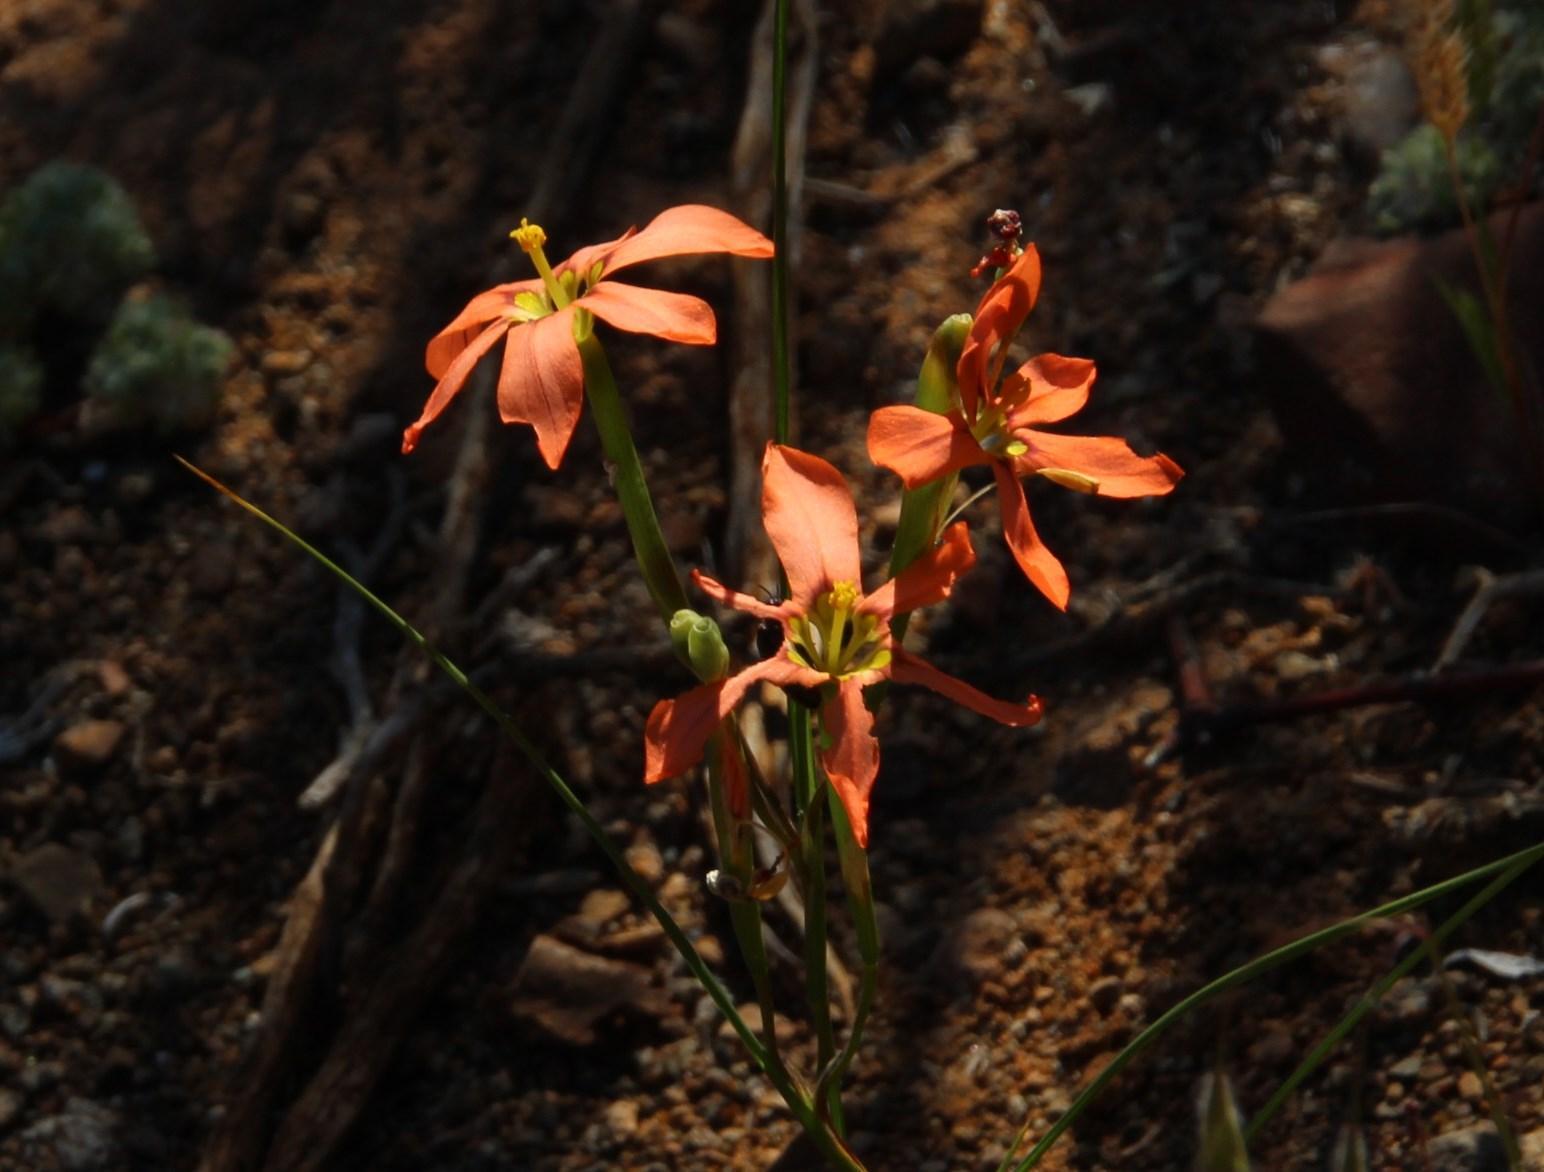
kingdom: Plantae
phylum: Tracheophyta
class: Liliopsida
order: Asparagales
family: Iridaceae
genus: Moraea
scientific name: Moraea fenestrata
